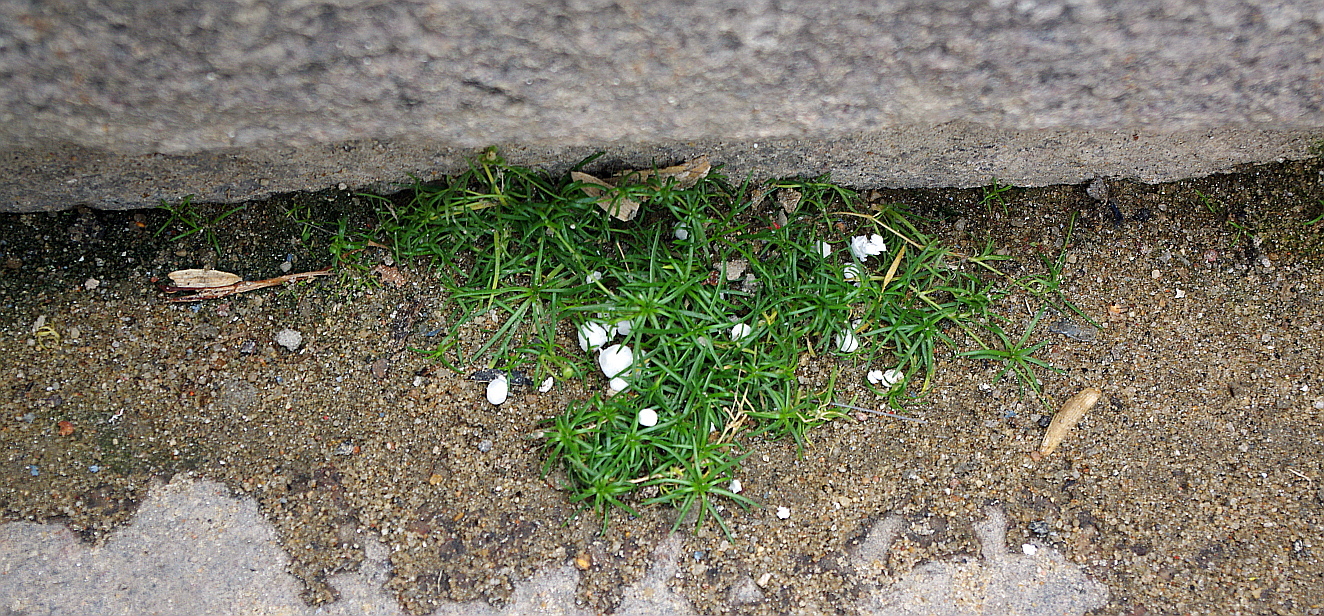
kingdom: Plantae
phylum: Tracheophyta
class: Magnoliopsida
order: Caryophyllales
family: Caryophyllaceae
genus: Sagina
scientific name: Sagina procumbens
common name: Procumbent pearlwort
